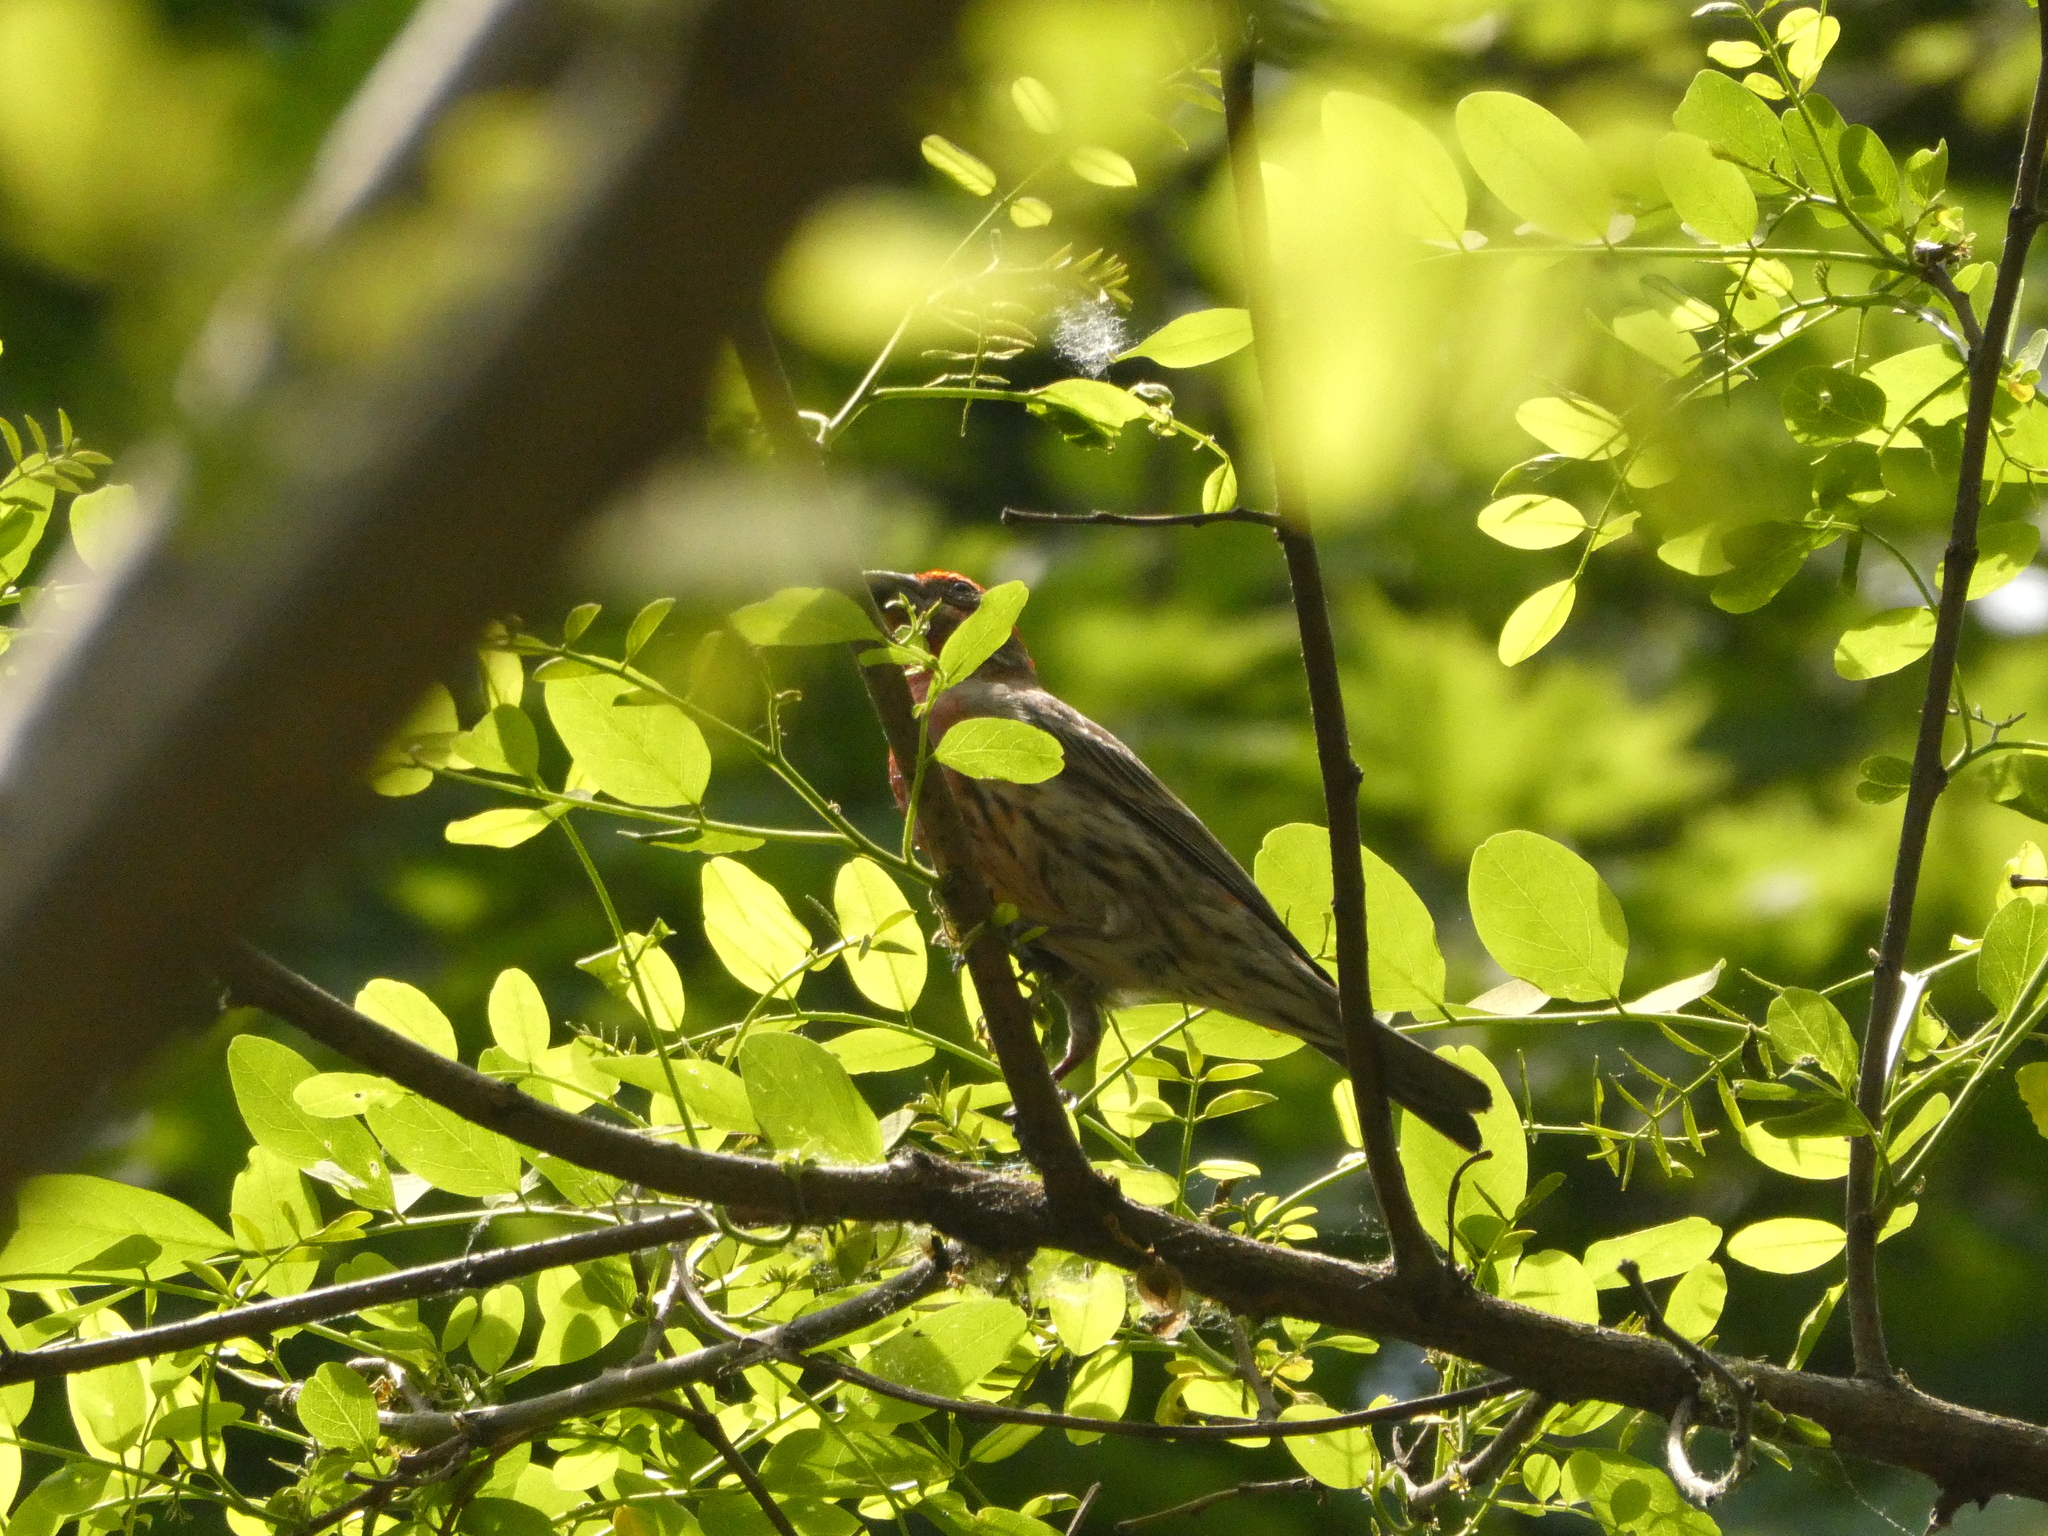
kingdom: Animalia
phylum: Chordata
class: Aves
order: Passeriformes
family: Fringillidae
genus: Haemorhous
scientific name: Haemorhous mexicanus
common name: House finch
